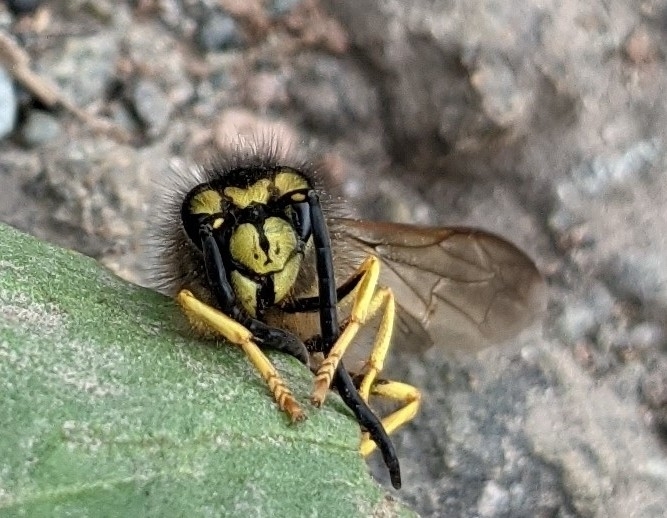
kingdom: Animalia
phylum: Arthropoda
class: Insecta
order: Hymenoptera
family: Vespidae
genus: Vespula
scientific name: Vespula germanica
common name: German wasp
